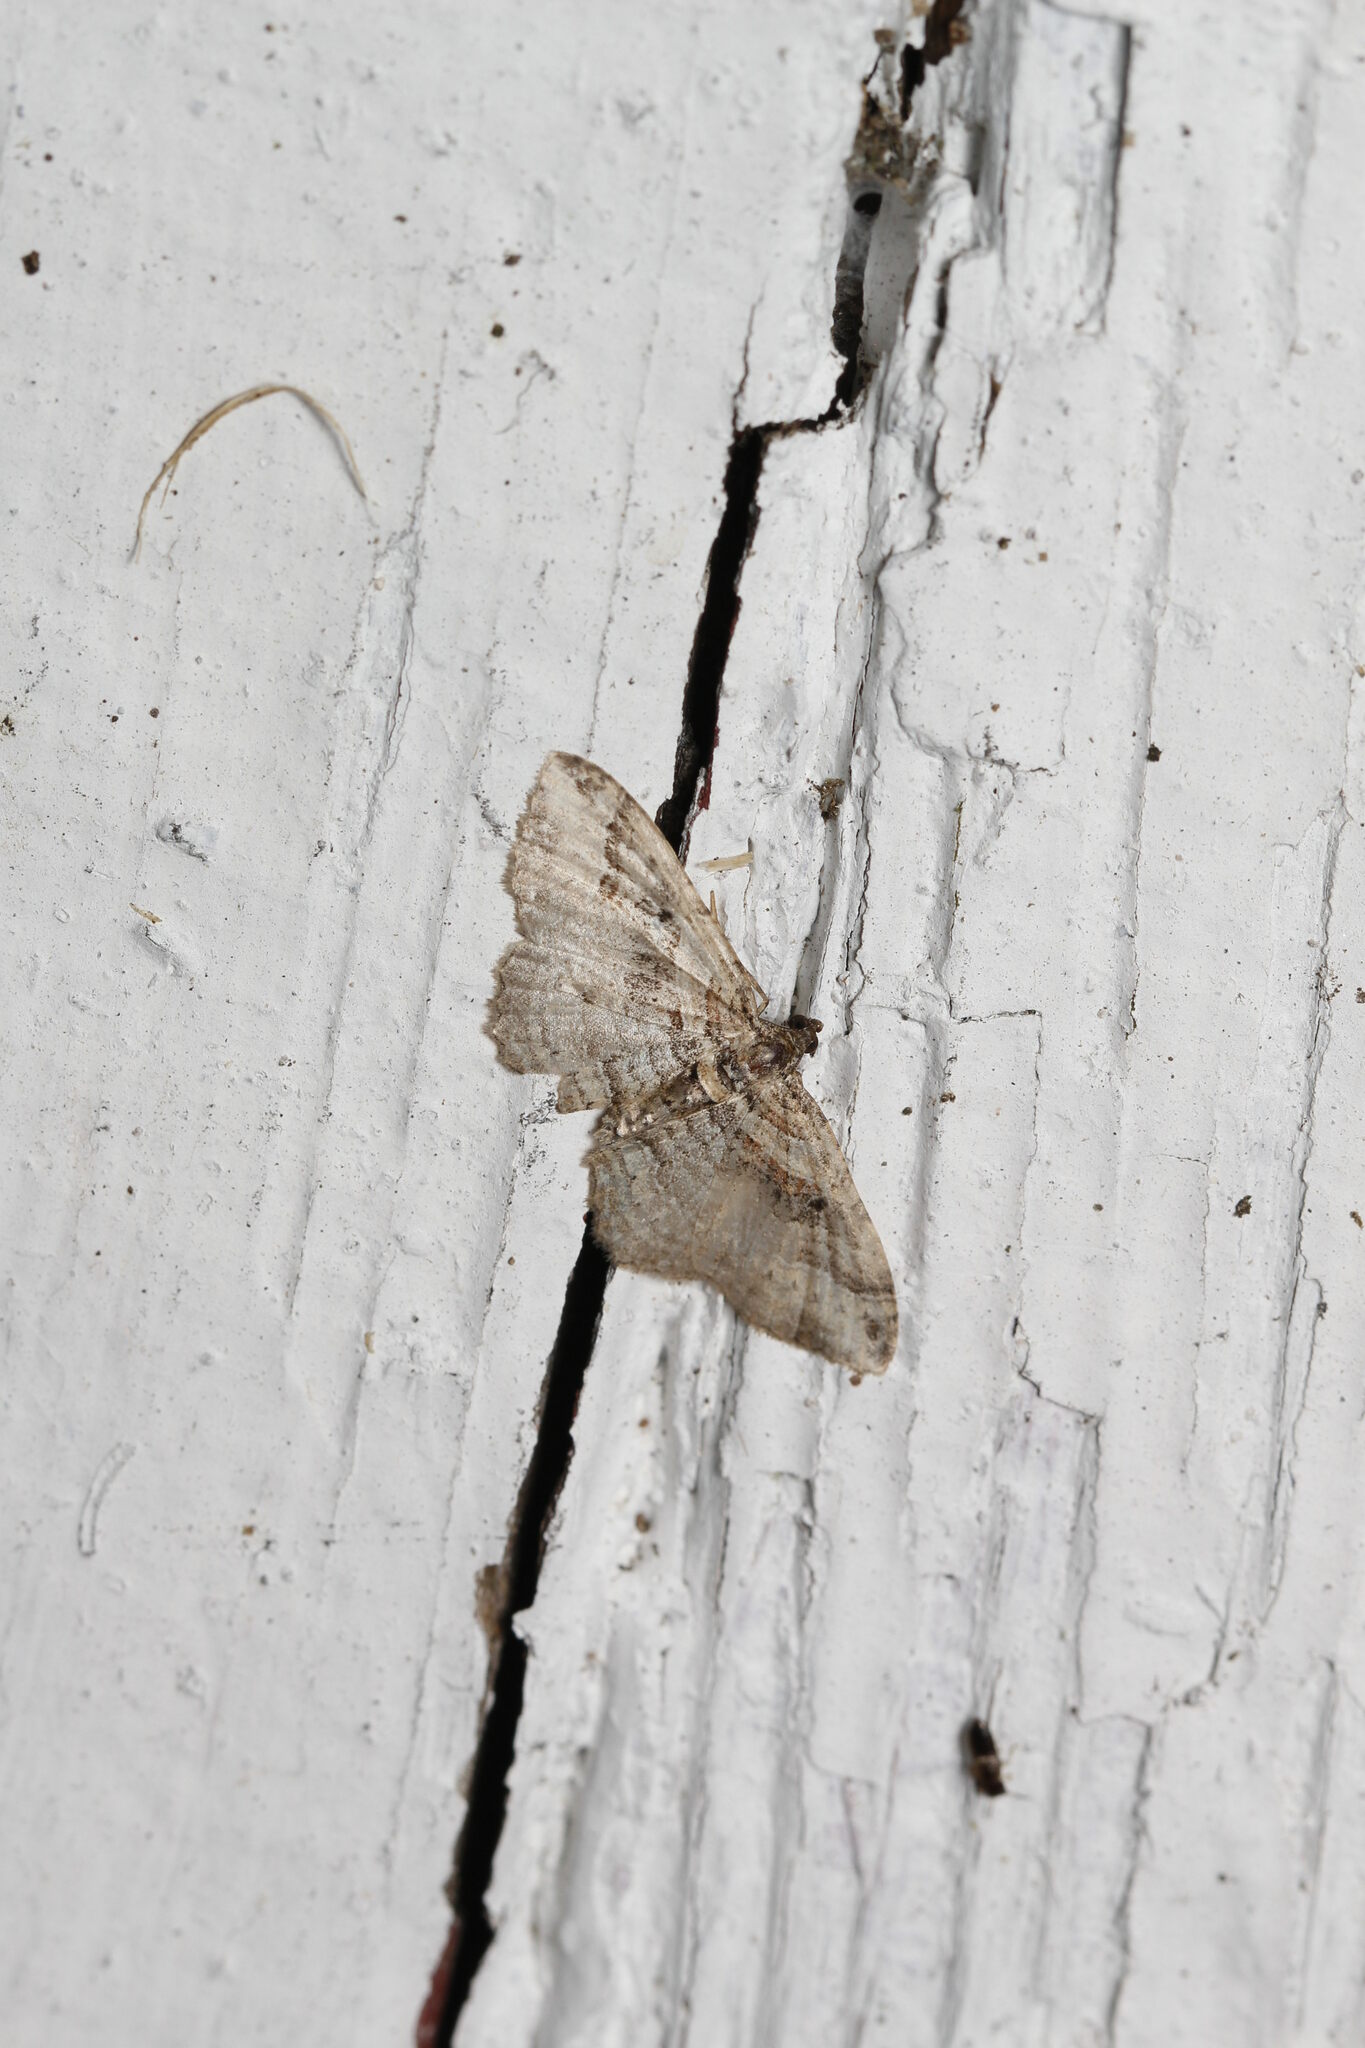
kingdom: Animalia
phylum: Arthropoda
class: Insecta
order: Lepidoptera
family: Geometridae
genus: Costaconvexa
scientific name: Costaconvexa centrostrigaria
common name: Bent-line carpet
